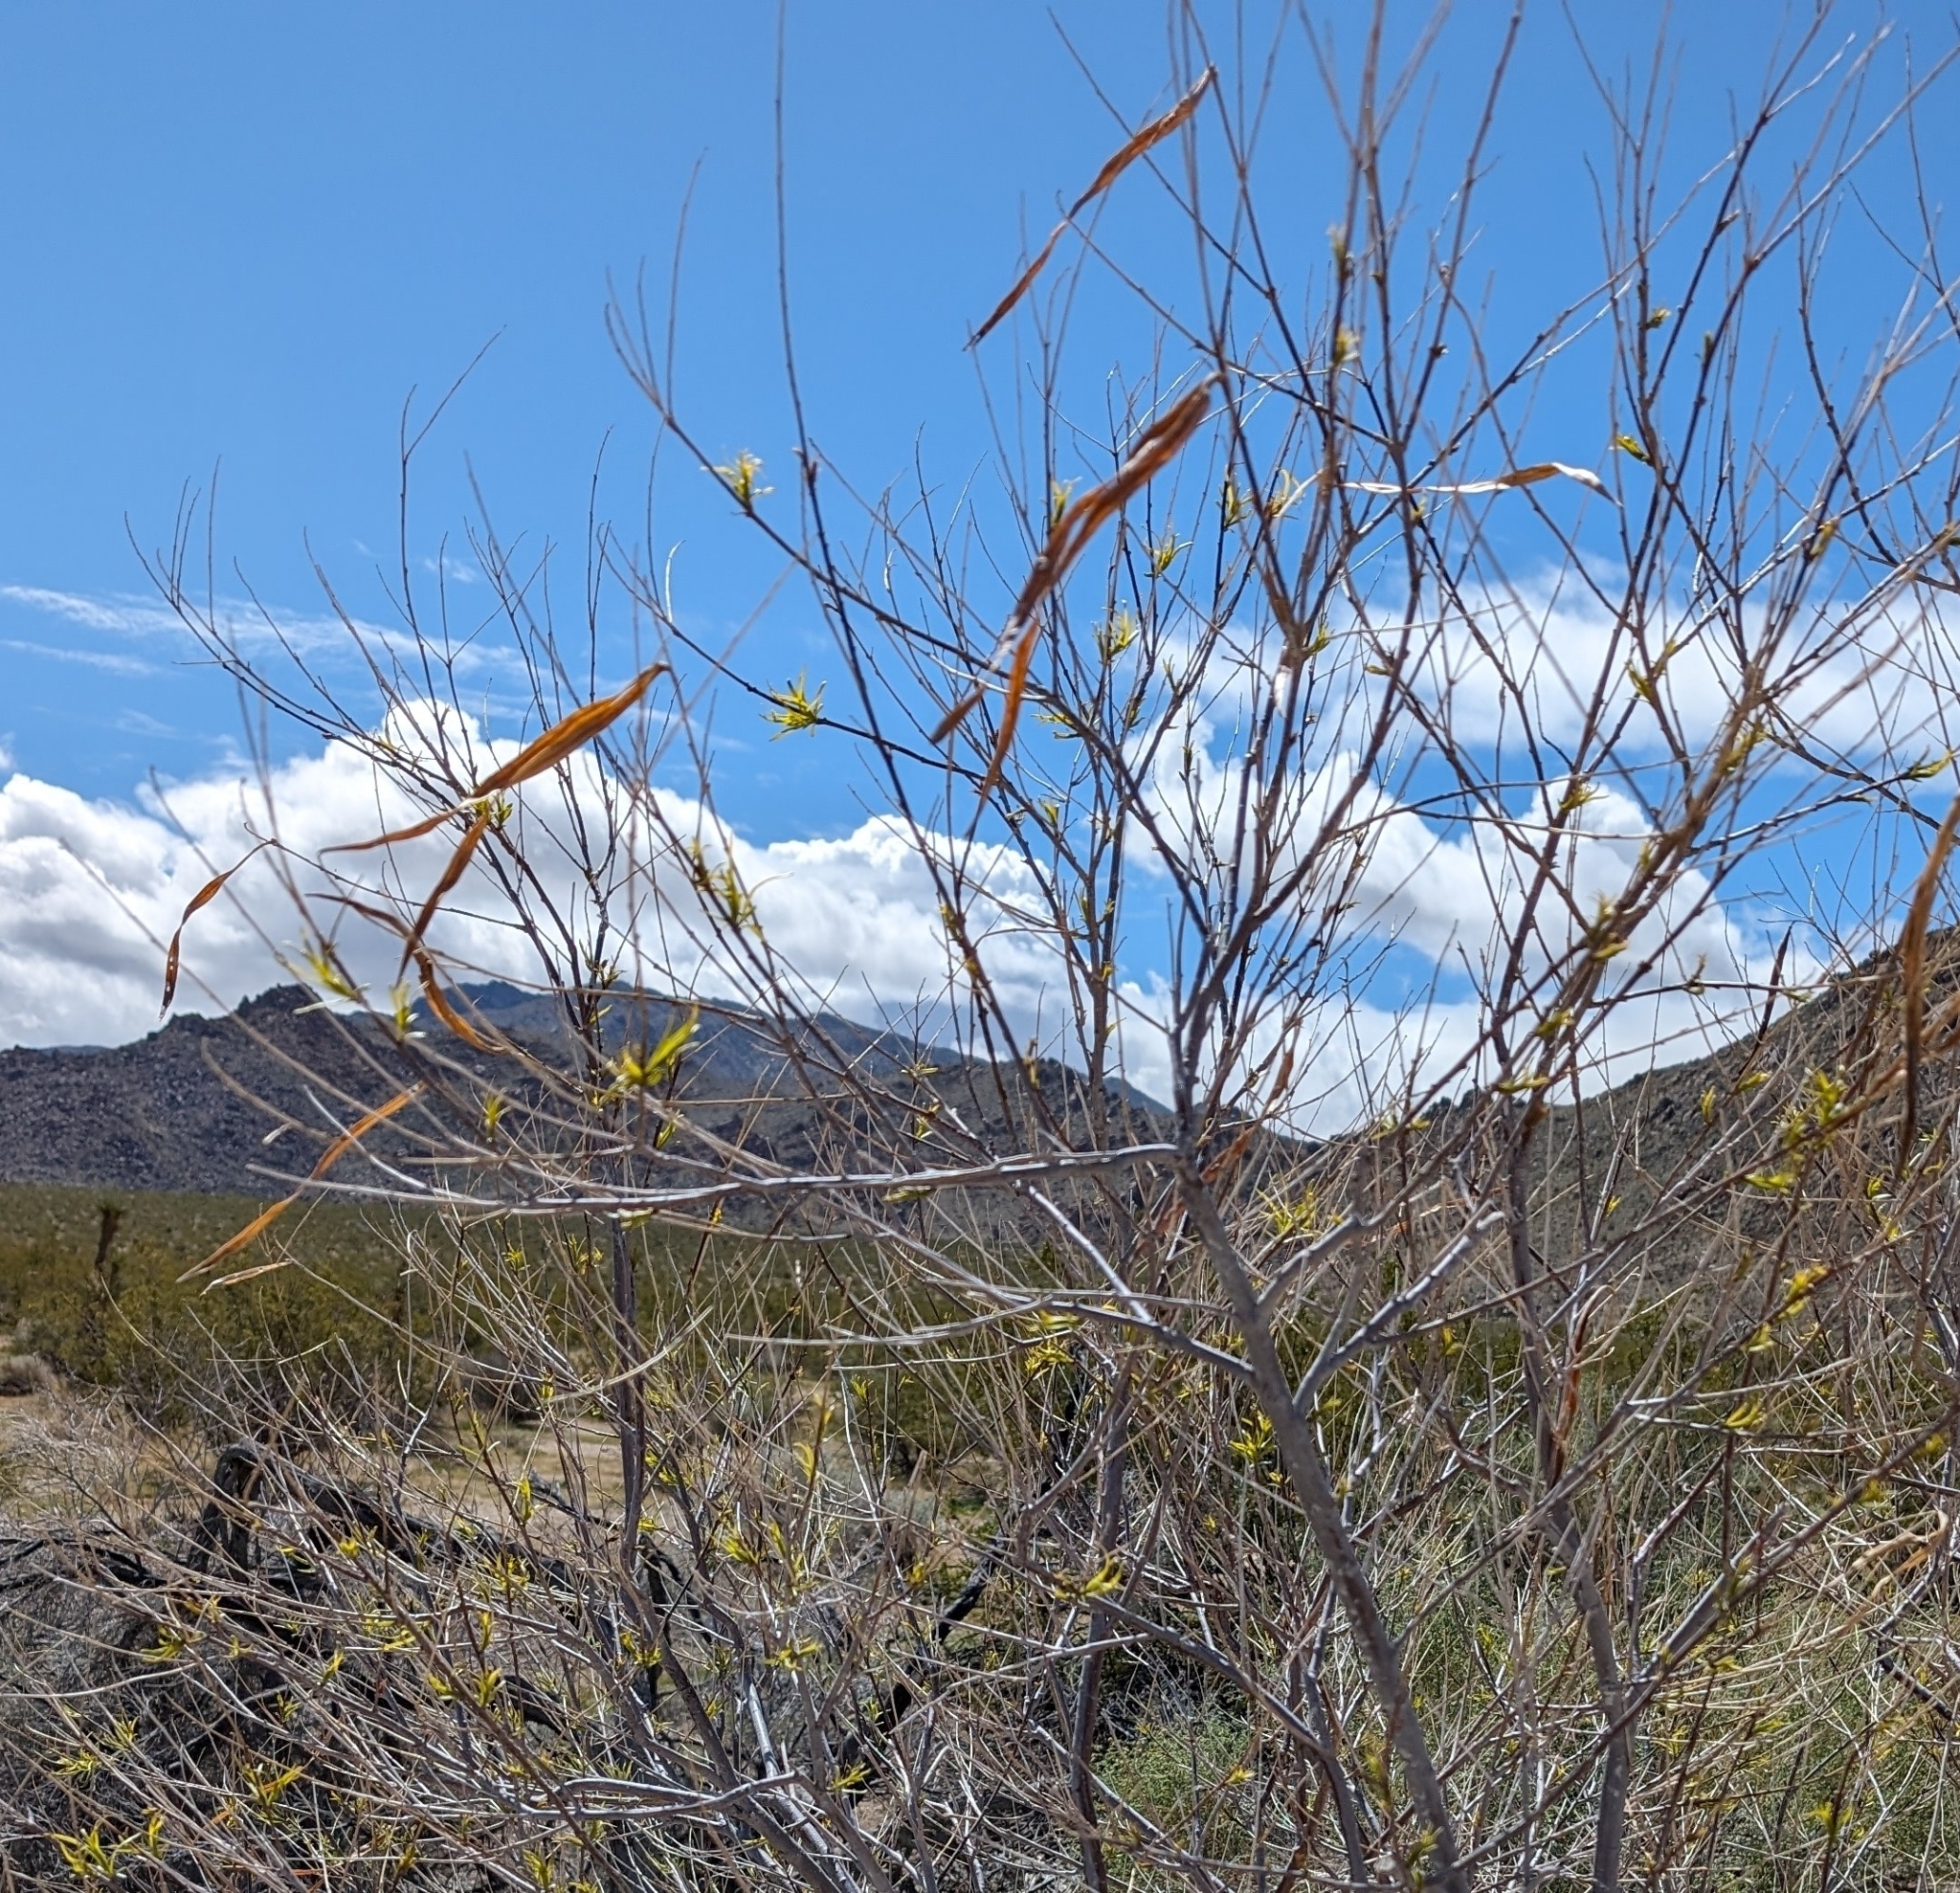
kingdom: Plantae
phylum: Tracheophyta
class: Magnoliopsida
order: Lamiales
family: Bignoniaceae
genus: Chilopsis
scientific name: Chilopsis linearis
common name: Desert-willow
